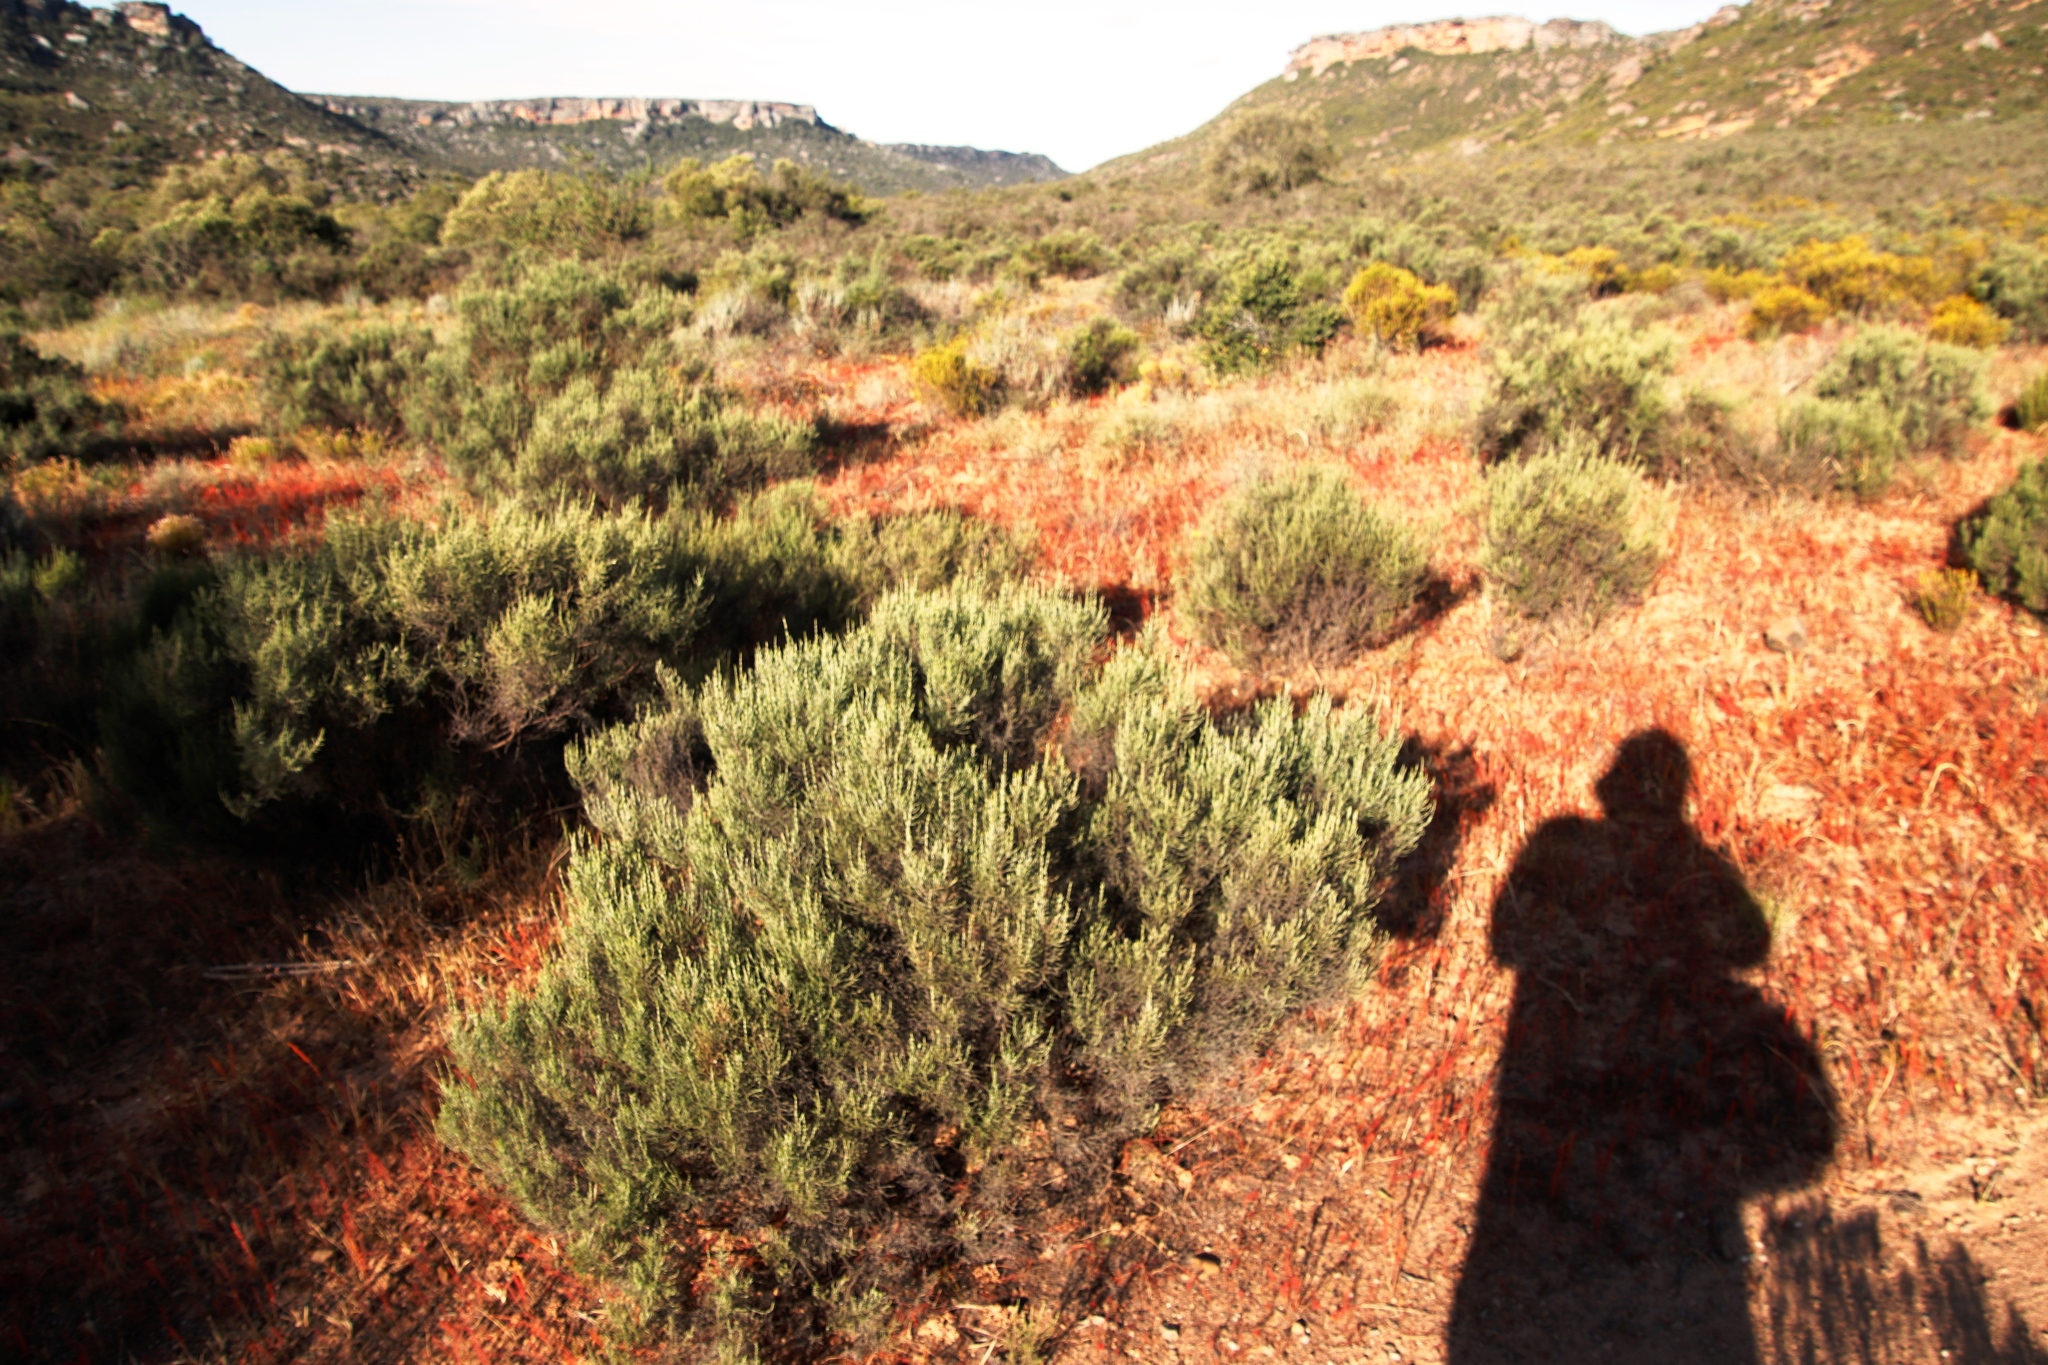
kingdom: Plantae
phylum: Tracheophyta
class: Magnoliopsida
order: Oxalidales
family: Oxalidaceae
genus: Oxalis
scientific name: Oxalis massoniana
